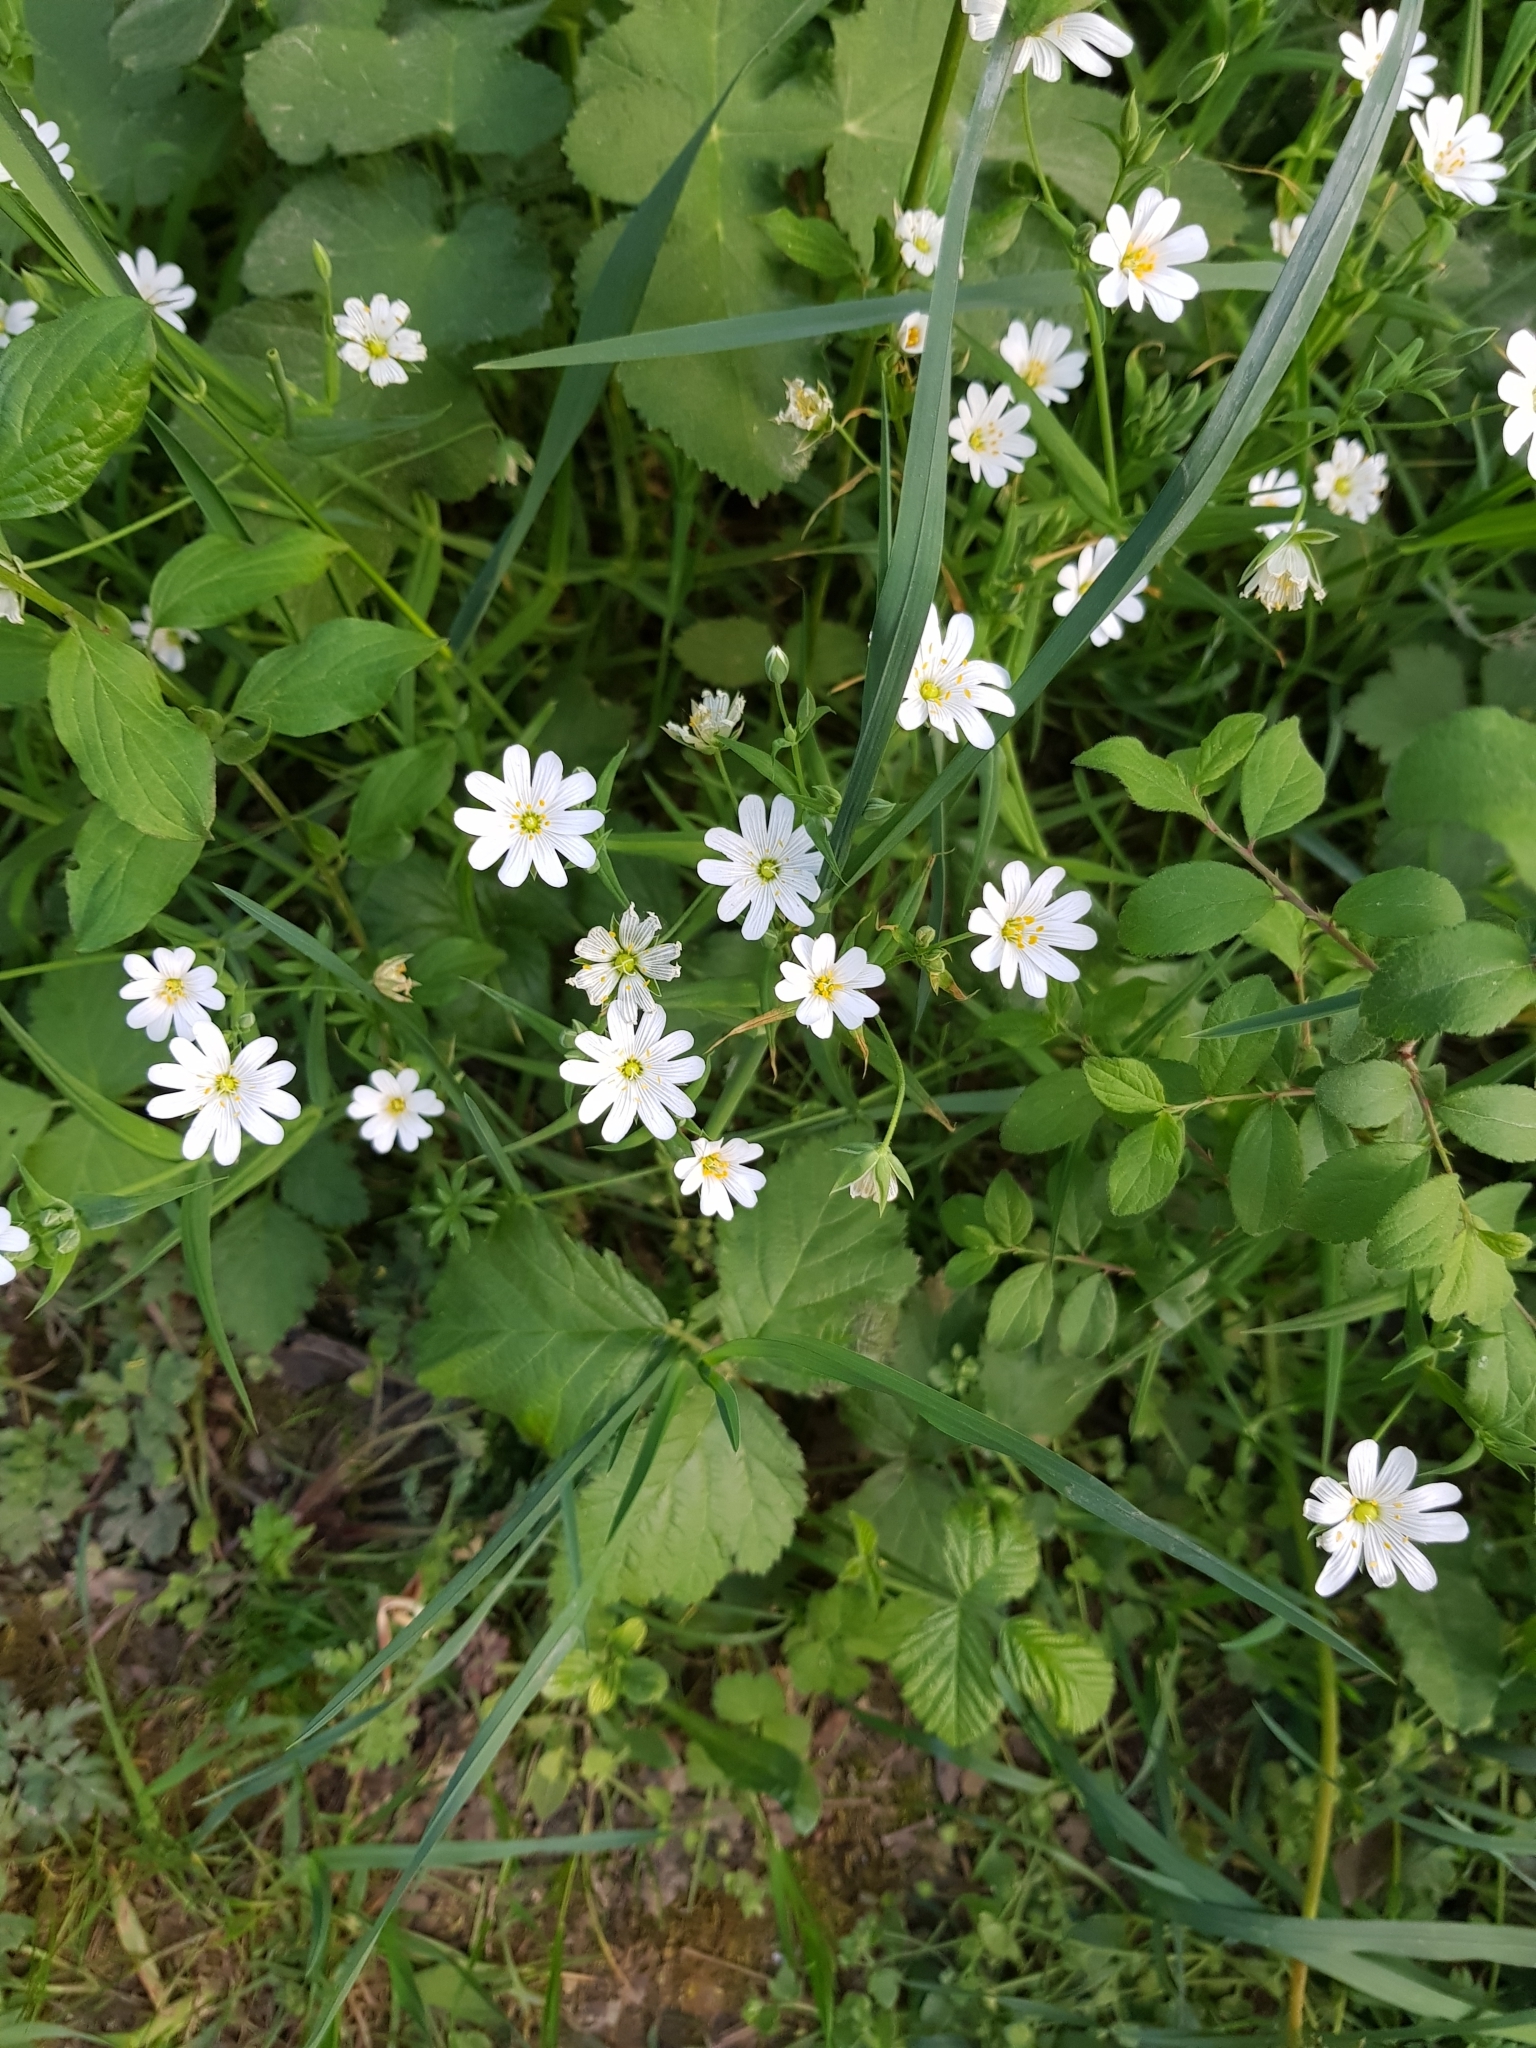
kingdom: Plantae
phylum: Tracheophyta
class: Magnoliopsida
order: Caryophyllales
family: Caryophyllaceae
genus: Rabelera
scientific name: Rabelera holostea
